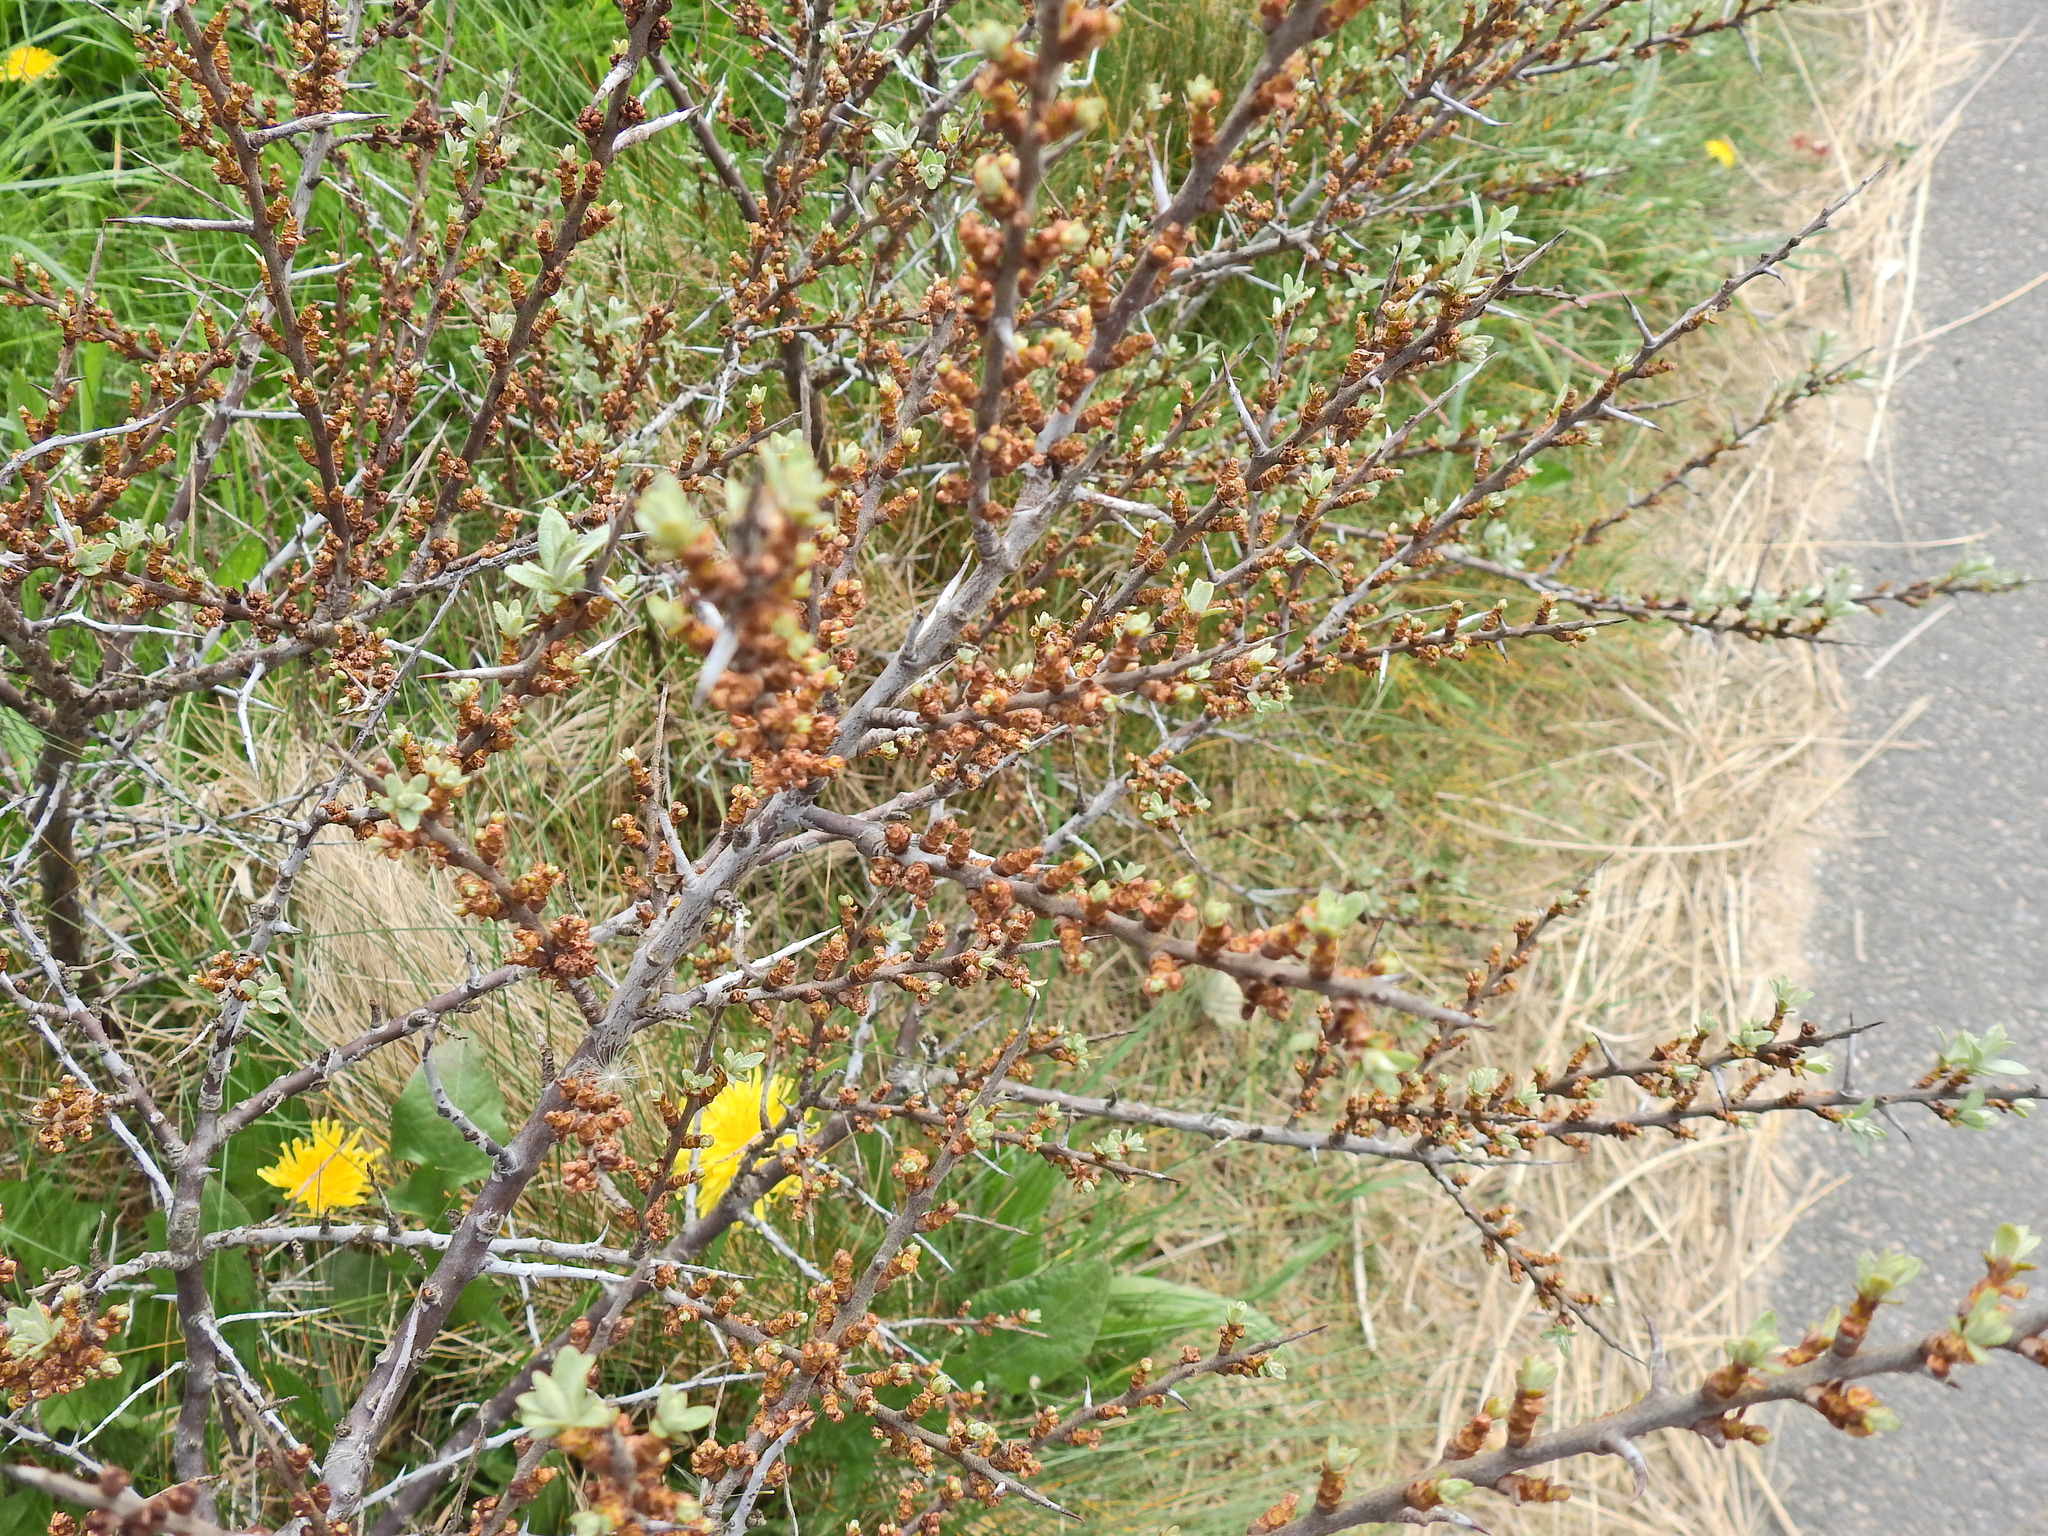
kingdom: Plantae
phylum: Tracheophyta
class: Magnoliopsida
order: Rosales
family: Elaeagnaceae
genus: Hippophae
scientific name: Hippophae rhamnoides
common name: Sea-buckthorn
